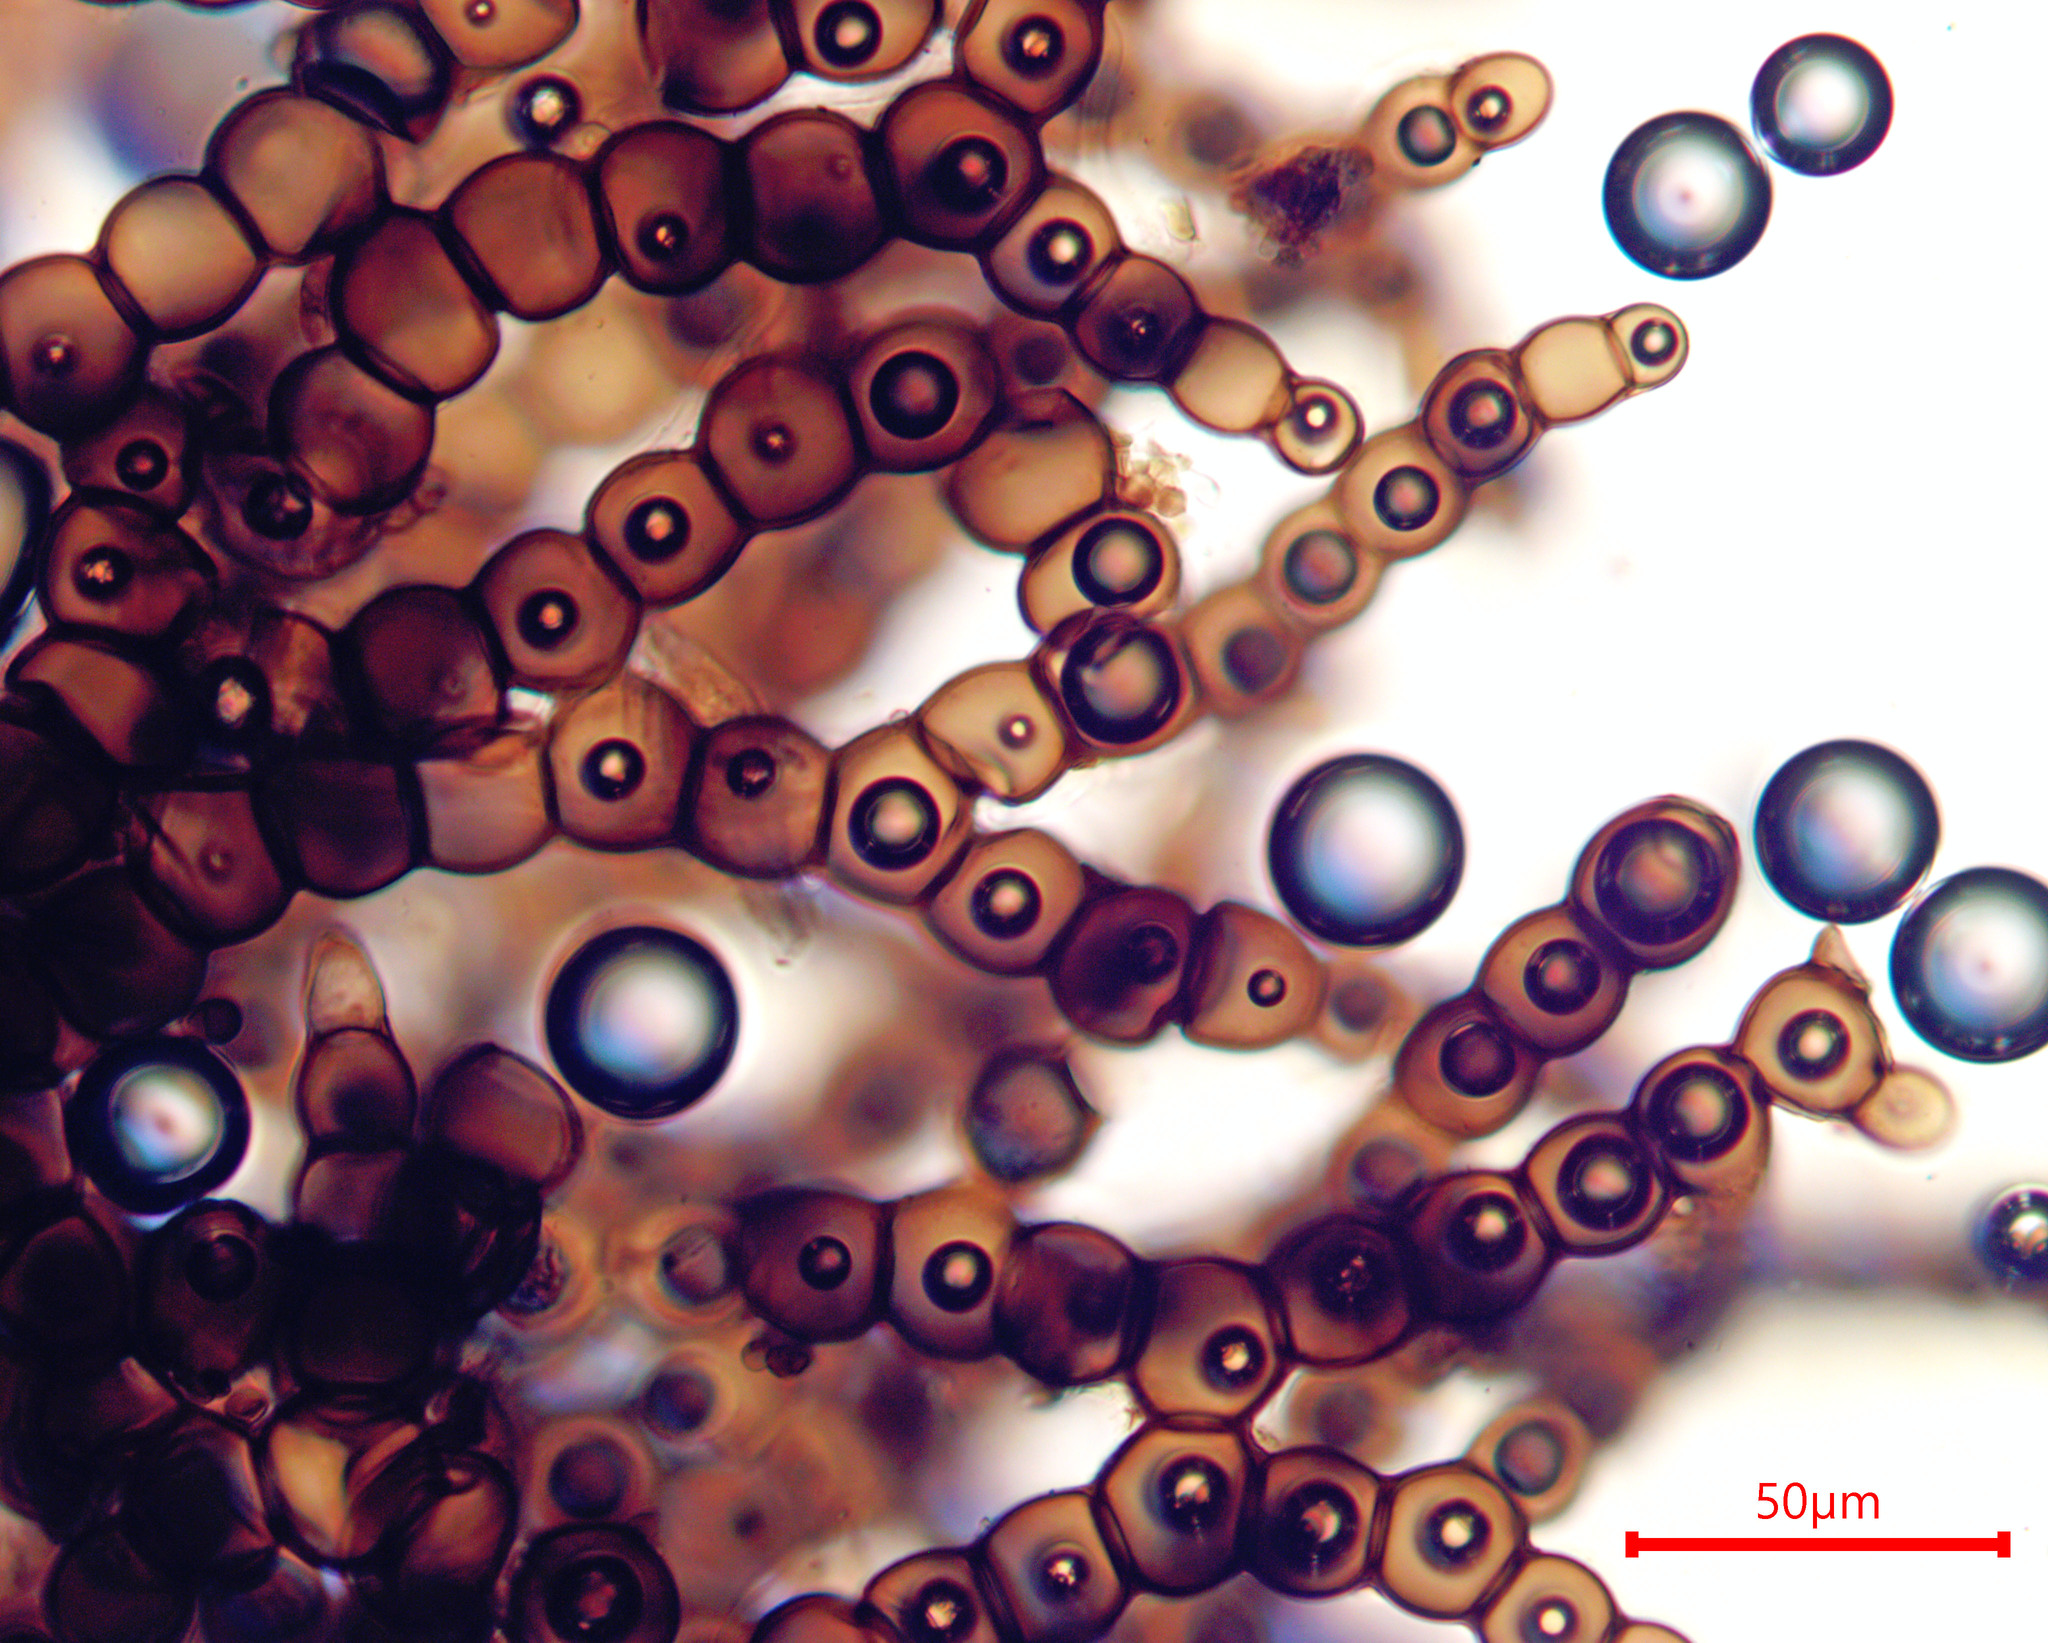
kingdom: Fungi
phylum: Ascomycota
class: Dothideomycetes
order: Capnodiales
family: Metacapnodiaceae
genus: Metacapnodium
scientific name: Metacapnodium fraserae
